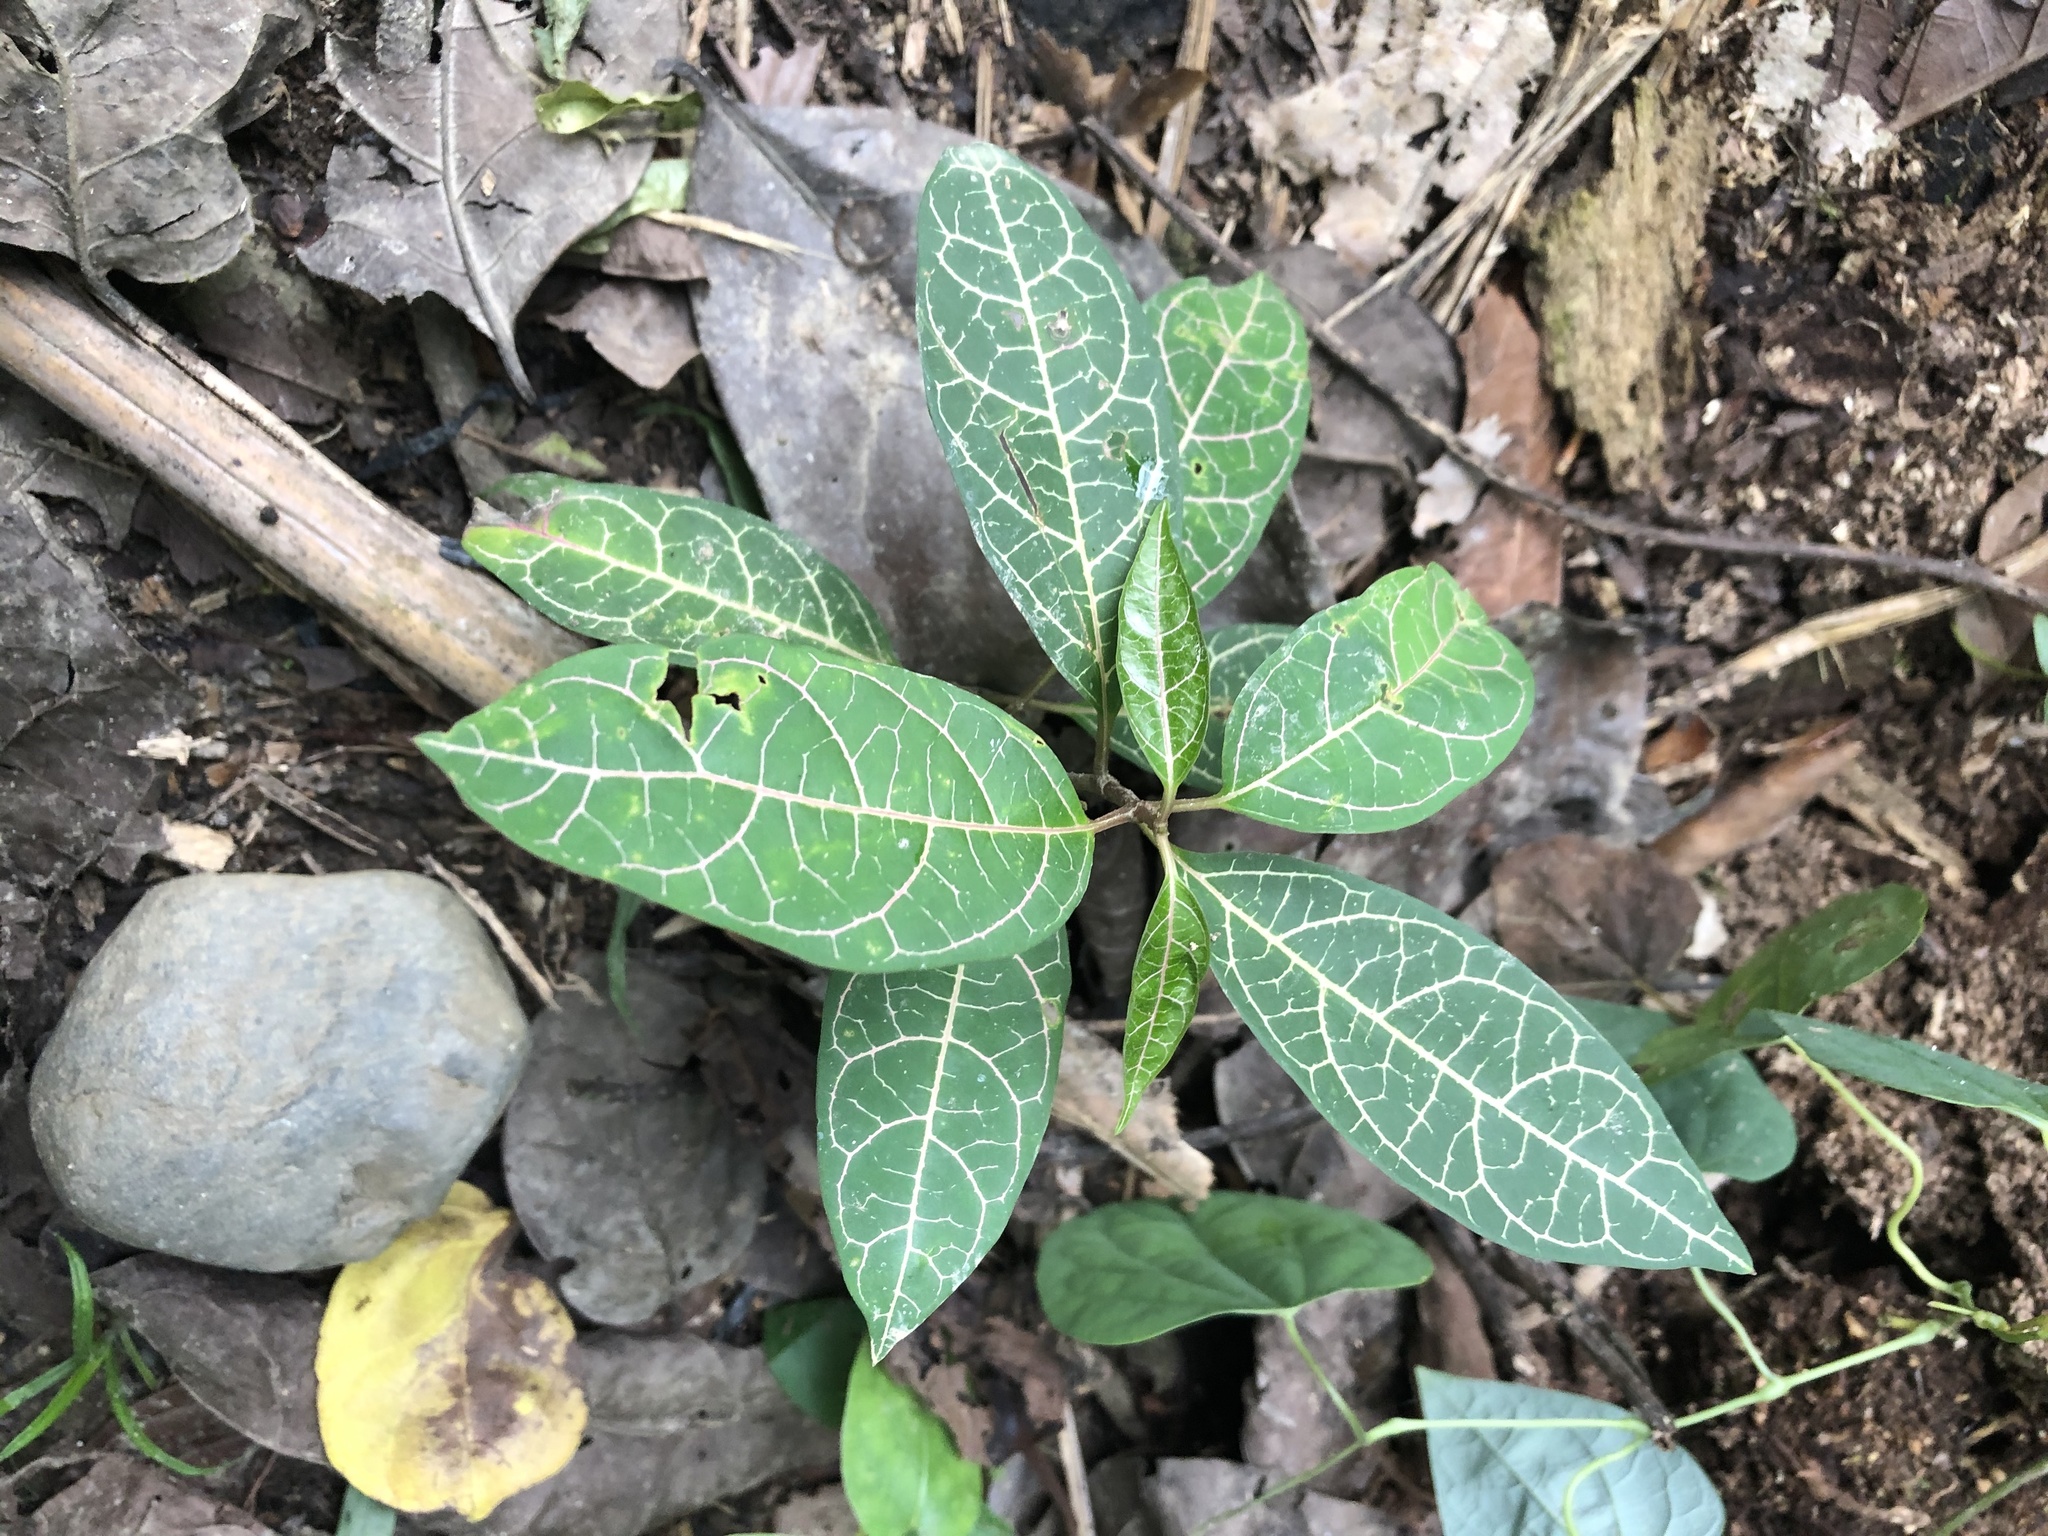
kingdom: Plantae
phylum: Tracheophyta
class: Magnoliopsida
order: Gentianales
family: Apocynaceae
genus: Prestonia
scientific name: Prestonia quinquangularis
